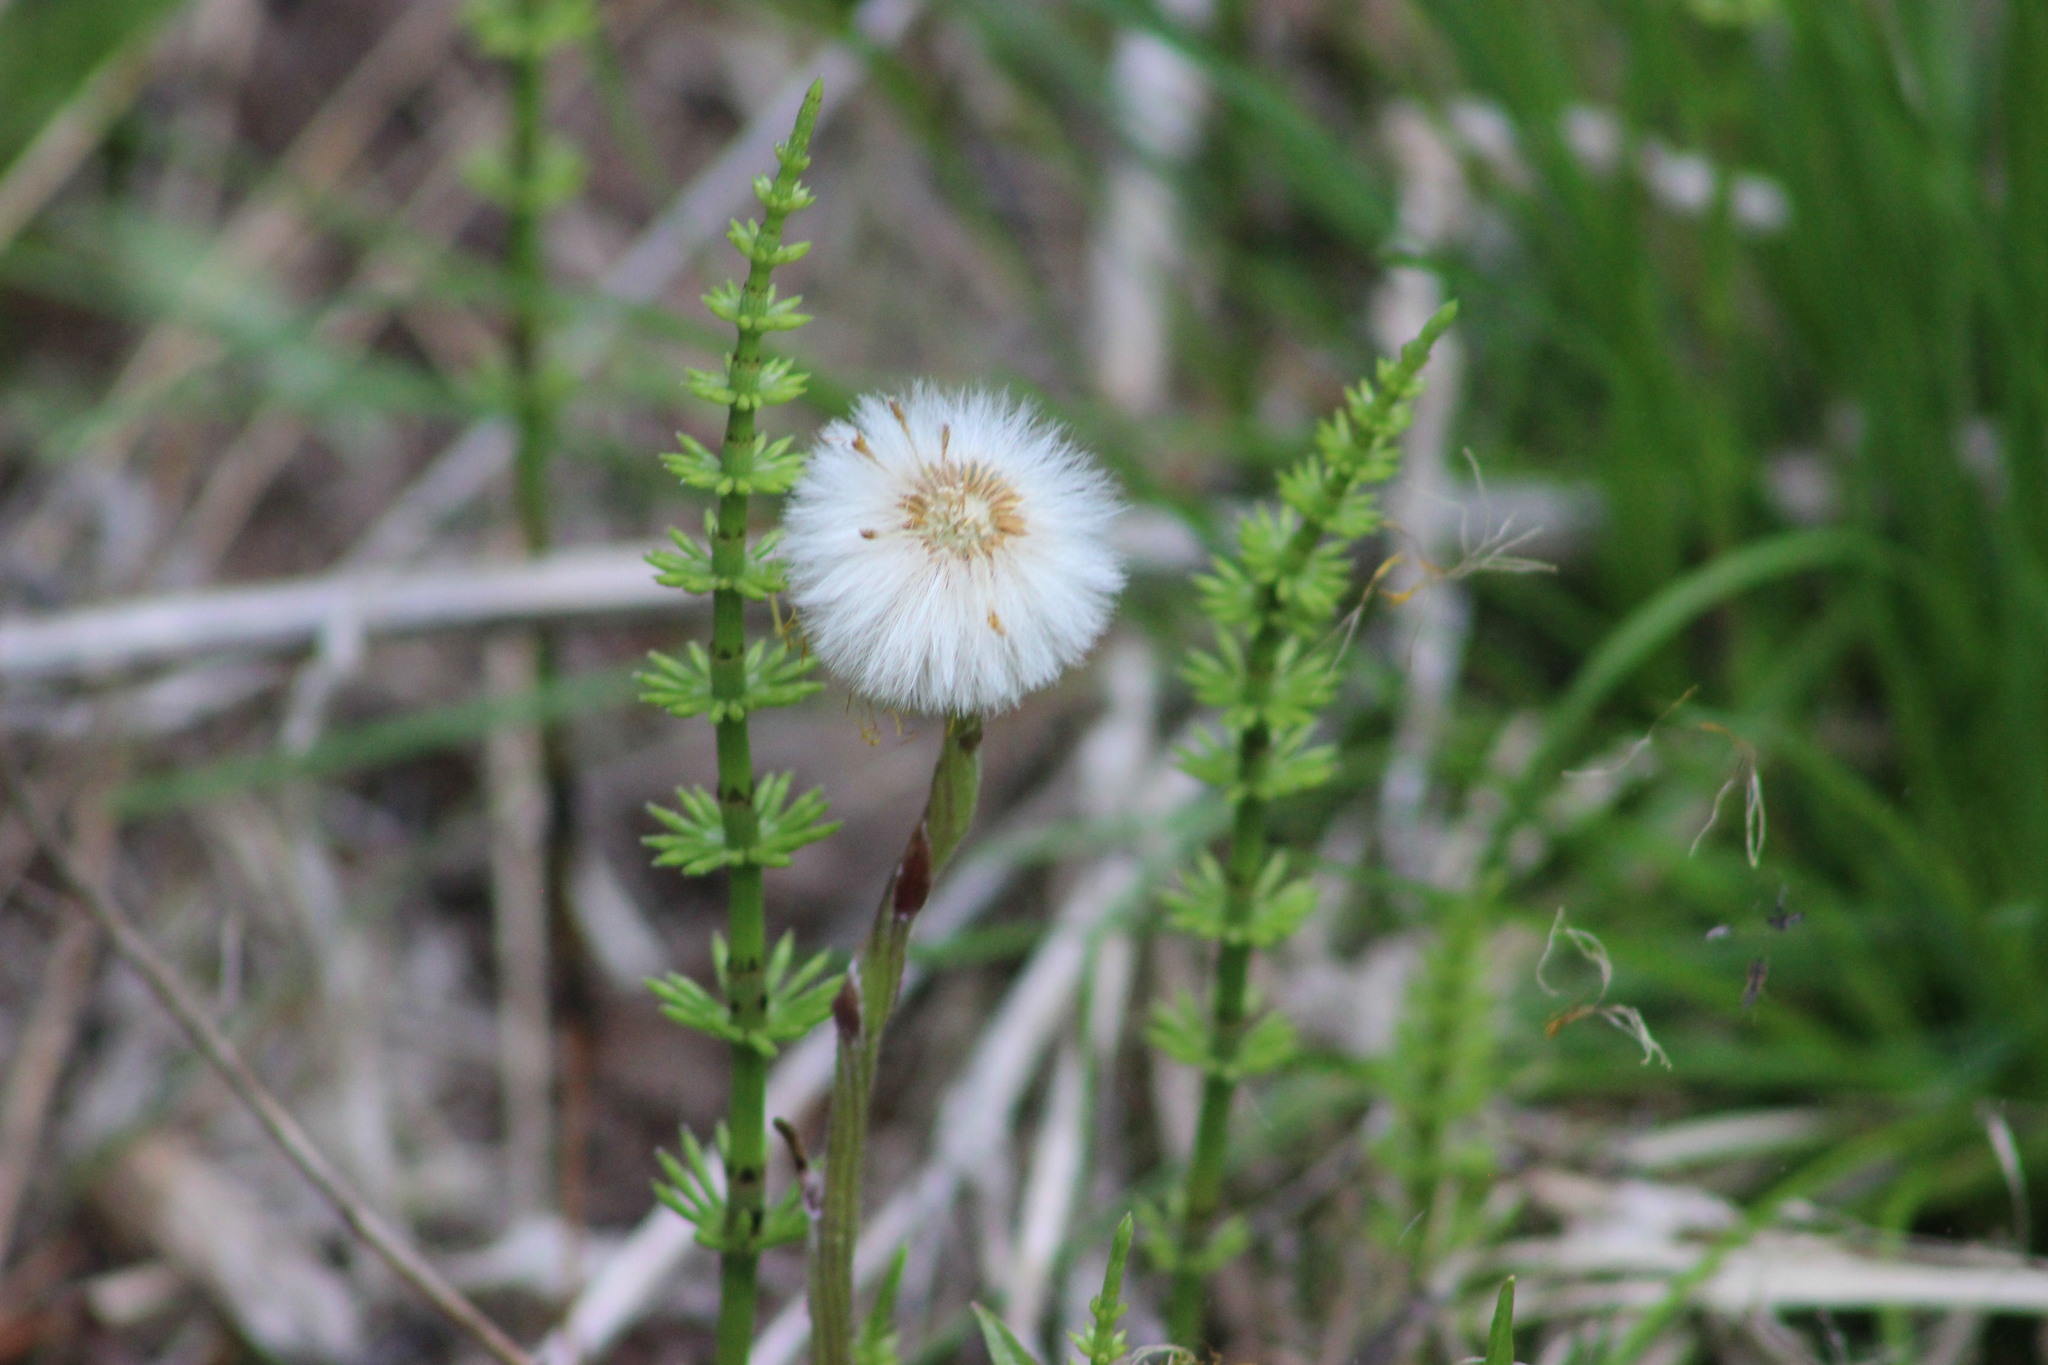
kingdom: Plantae
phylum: Tracheophyta
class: Magnoliopsida
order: Asterales
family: Asteraceae
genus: Tussilago
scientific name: Tussilago farfara
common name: Coltsfoot
